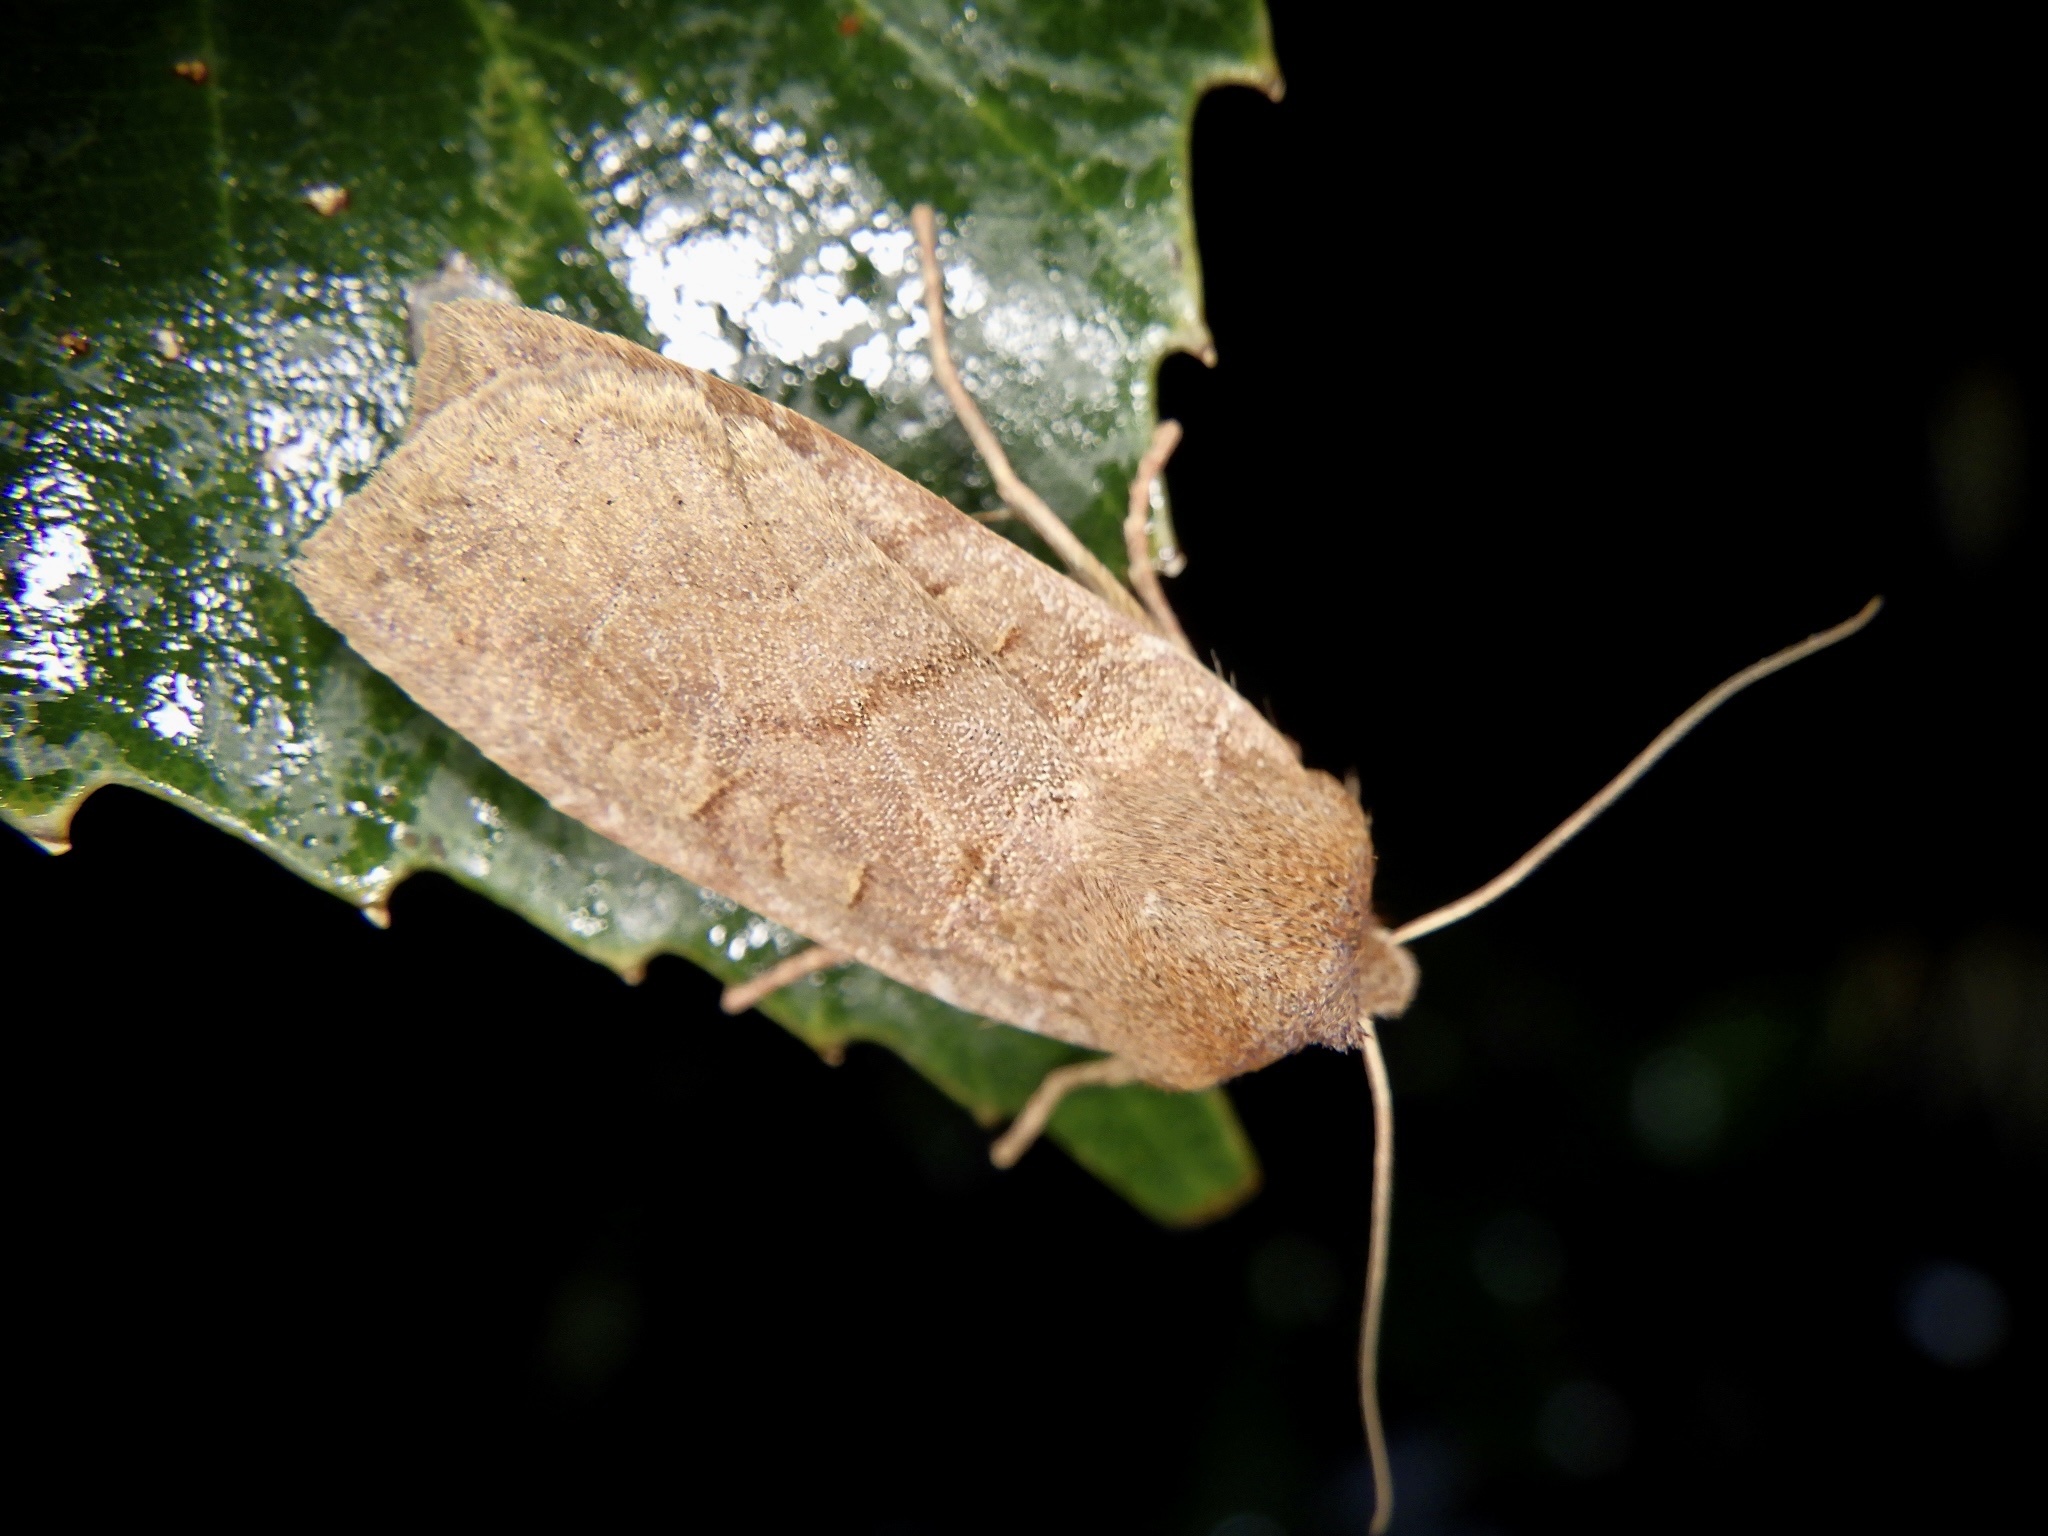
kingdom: Animalia
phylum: Arthropoda
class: Insecta
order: Lepidoptera
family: Noctuidae
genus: Conistra
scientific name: Conistra fletcheri
